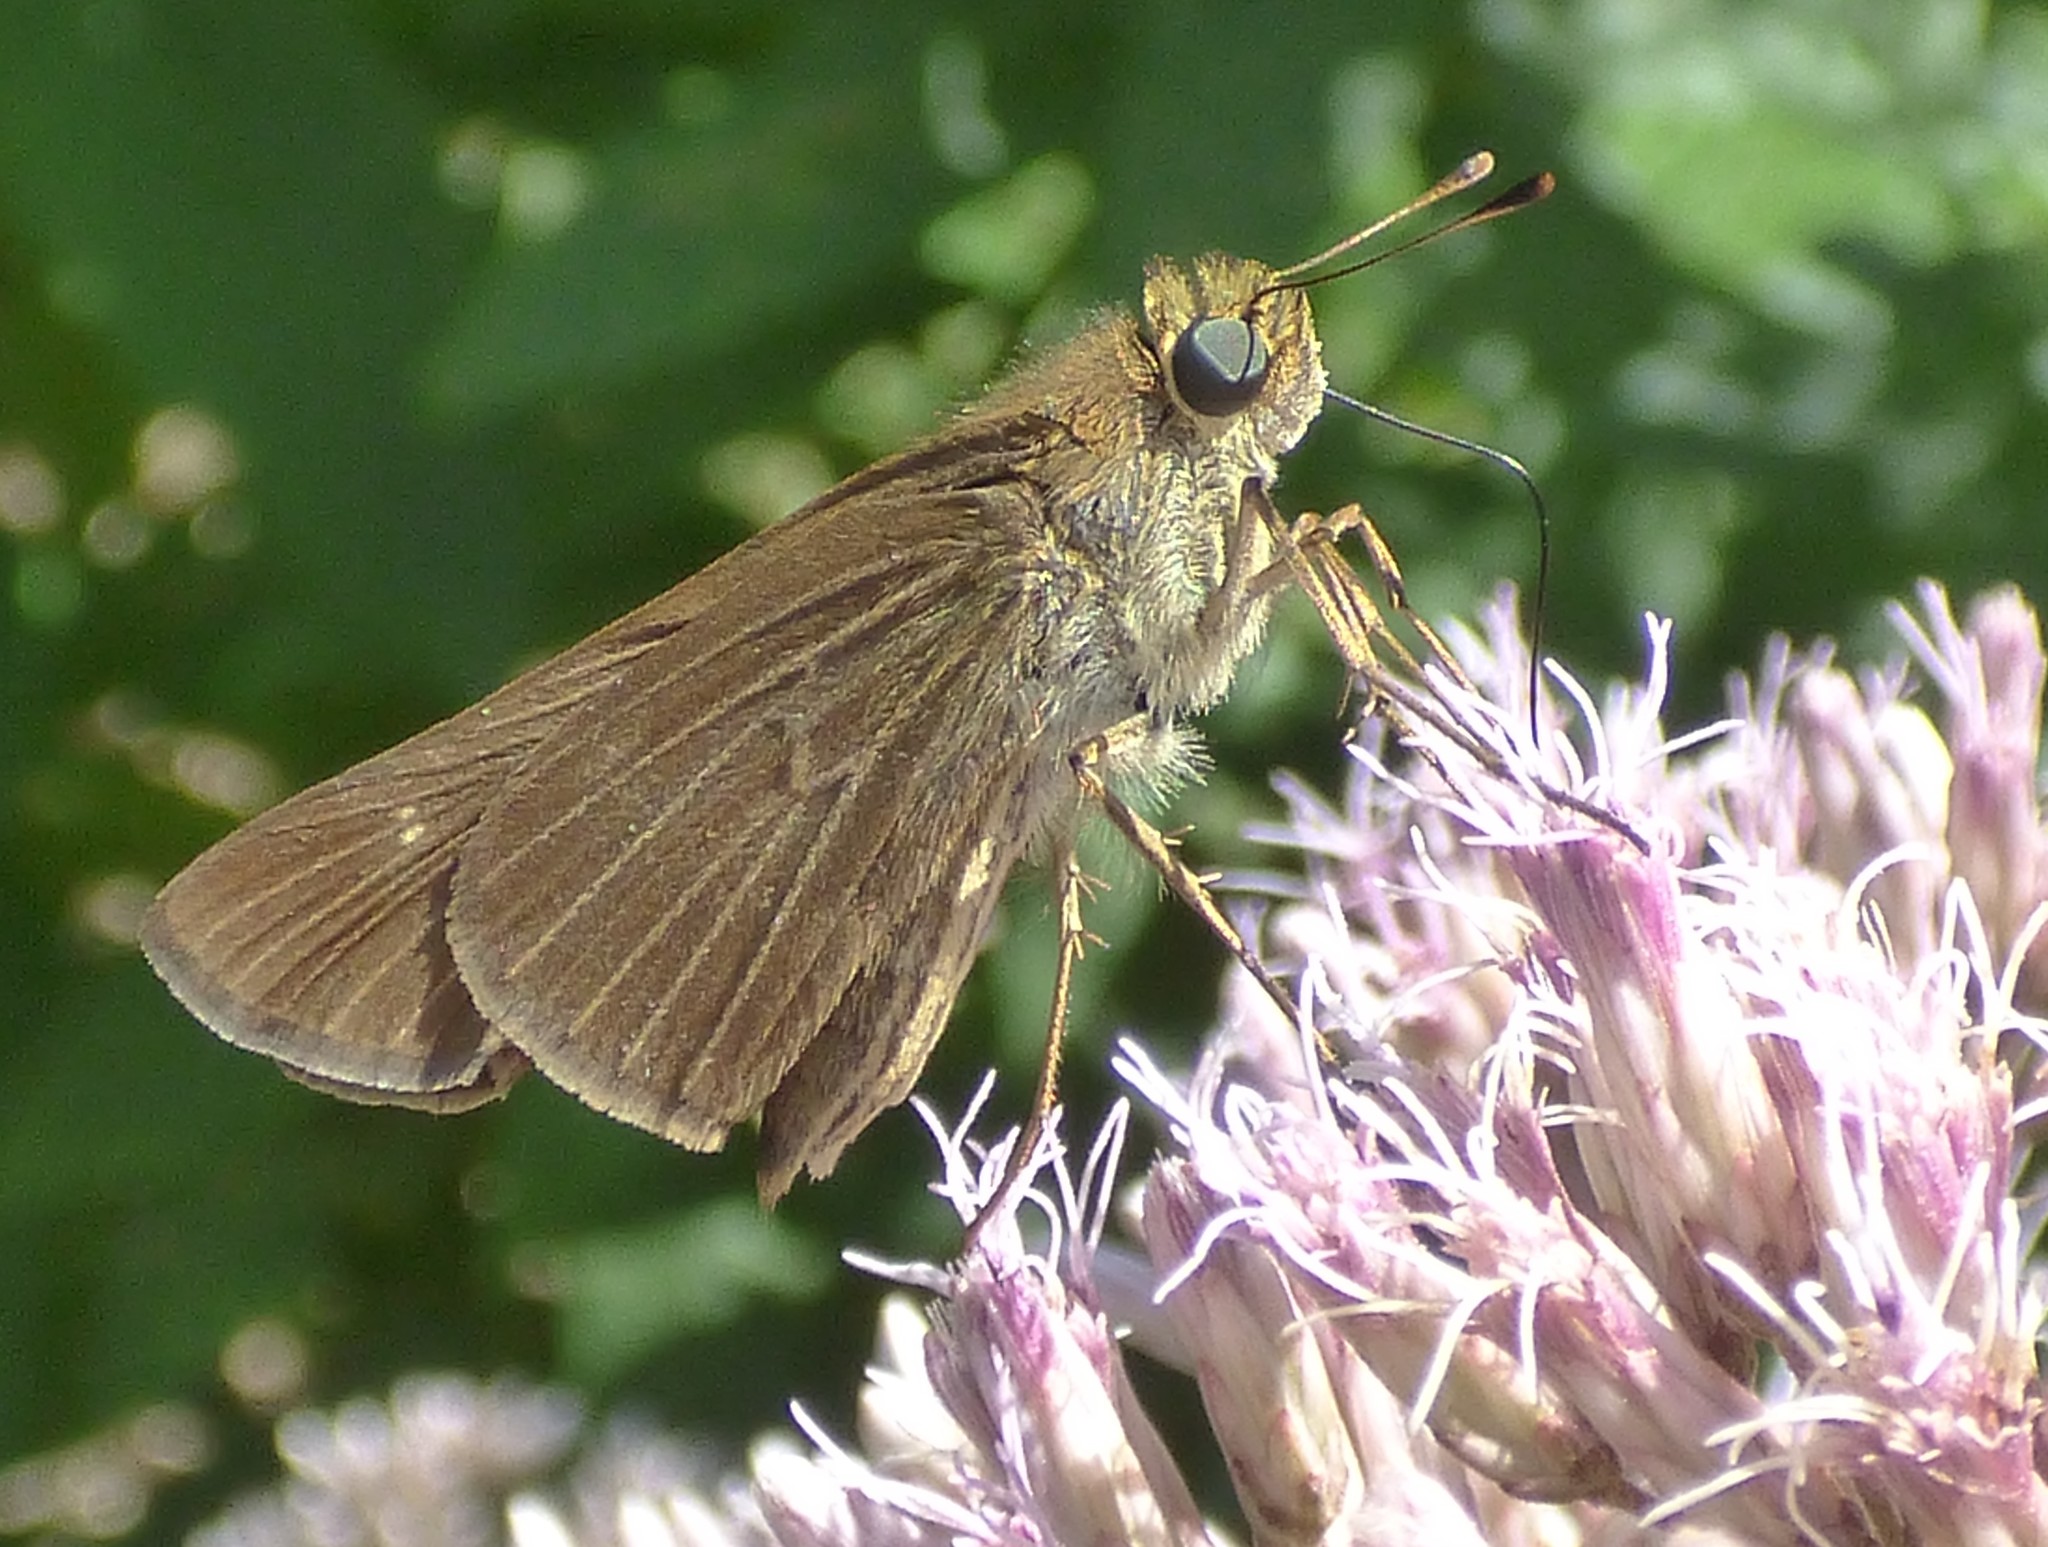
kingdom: Animalia
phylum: Arthropoda
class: Insecta
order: Lepidoptera
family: Hesperiidae
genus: Panoquina
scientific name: Panoquina ocola
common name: Ocola skipper
